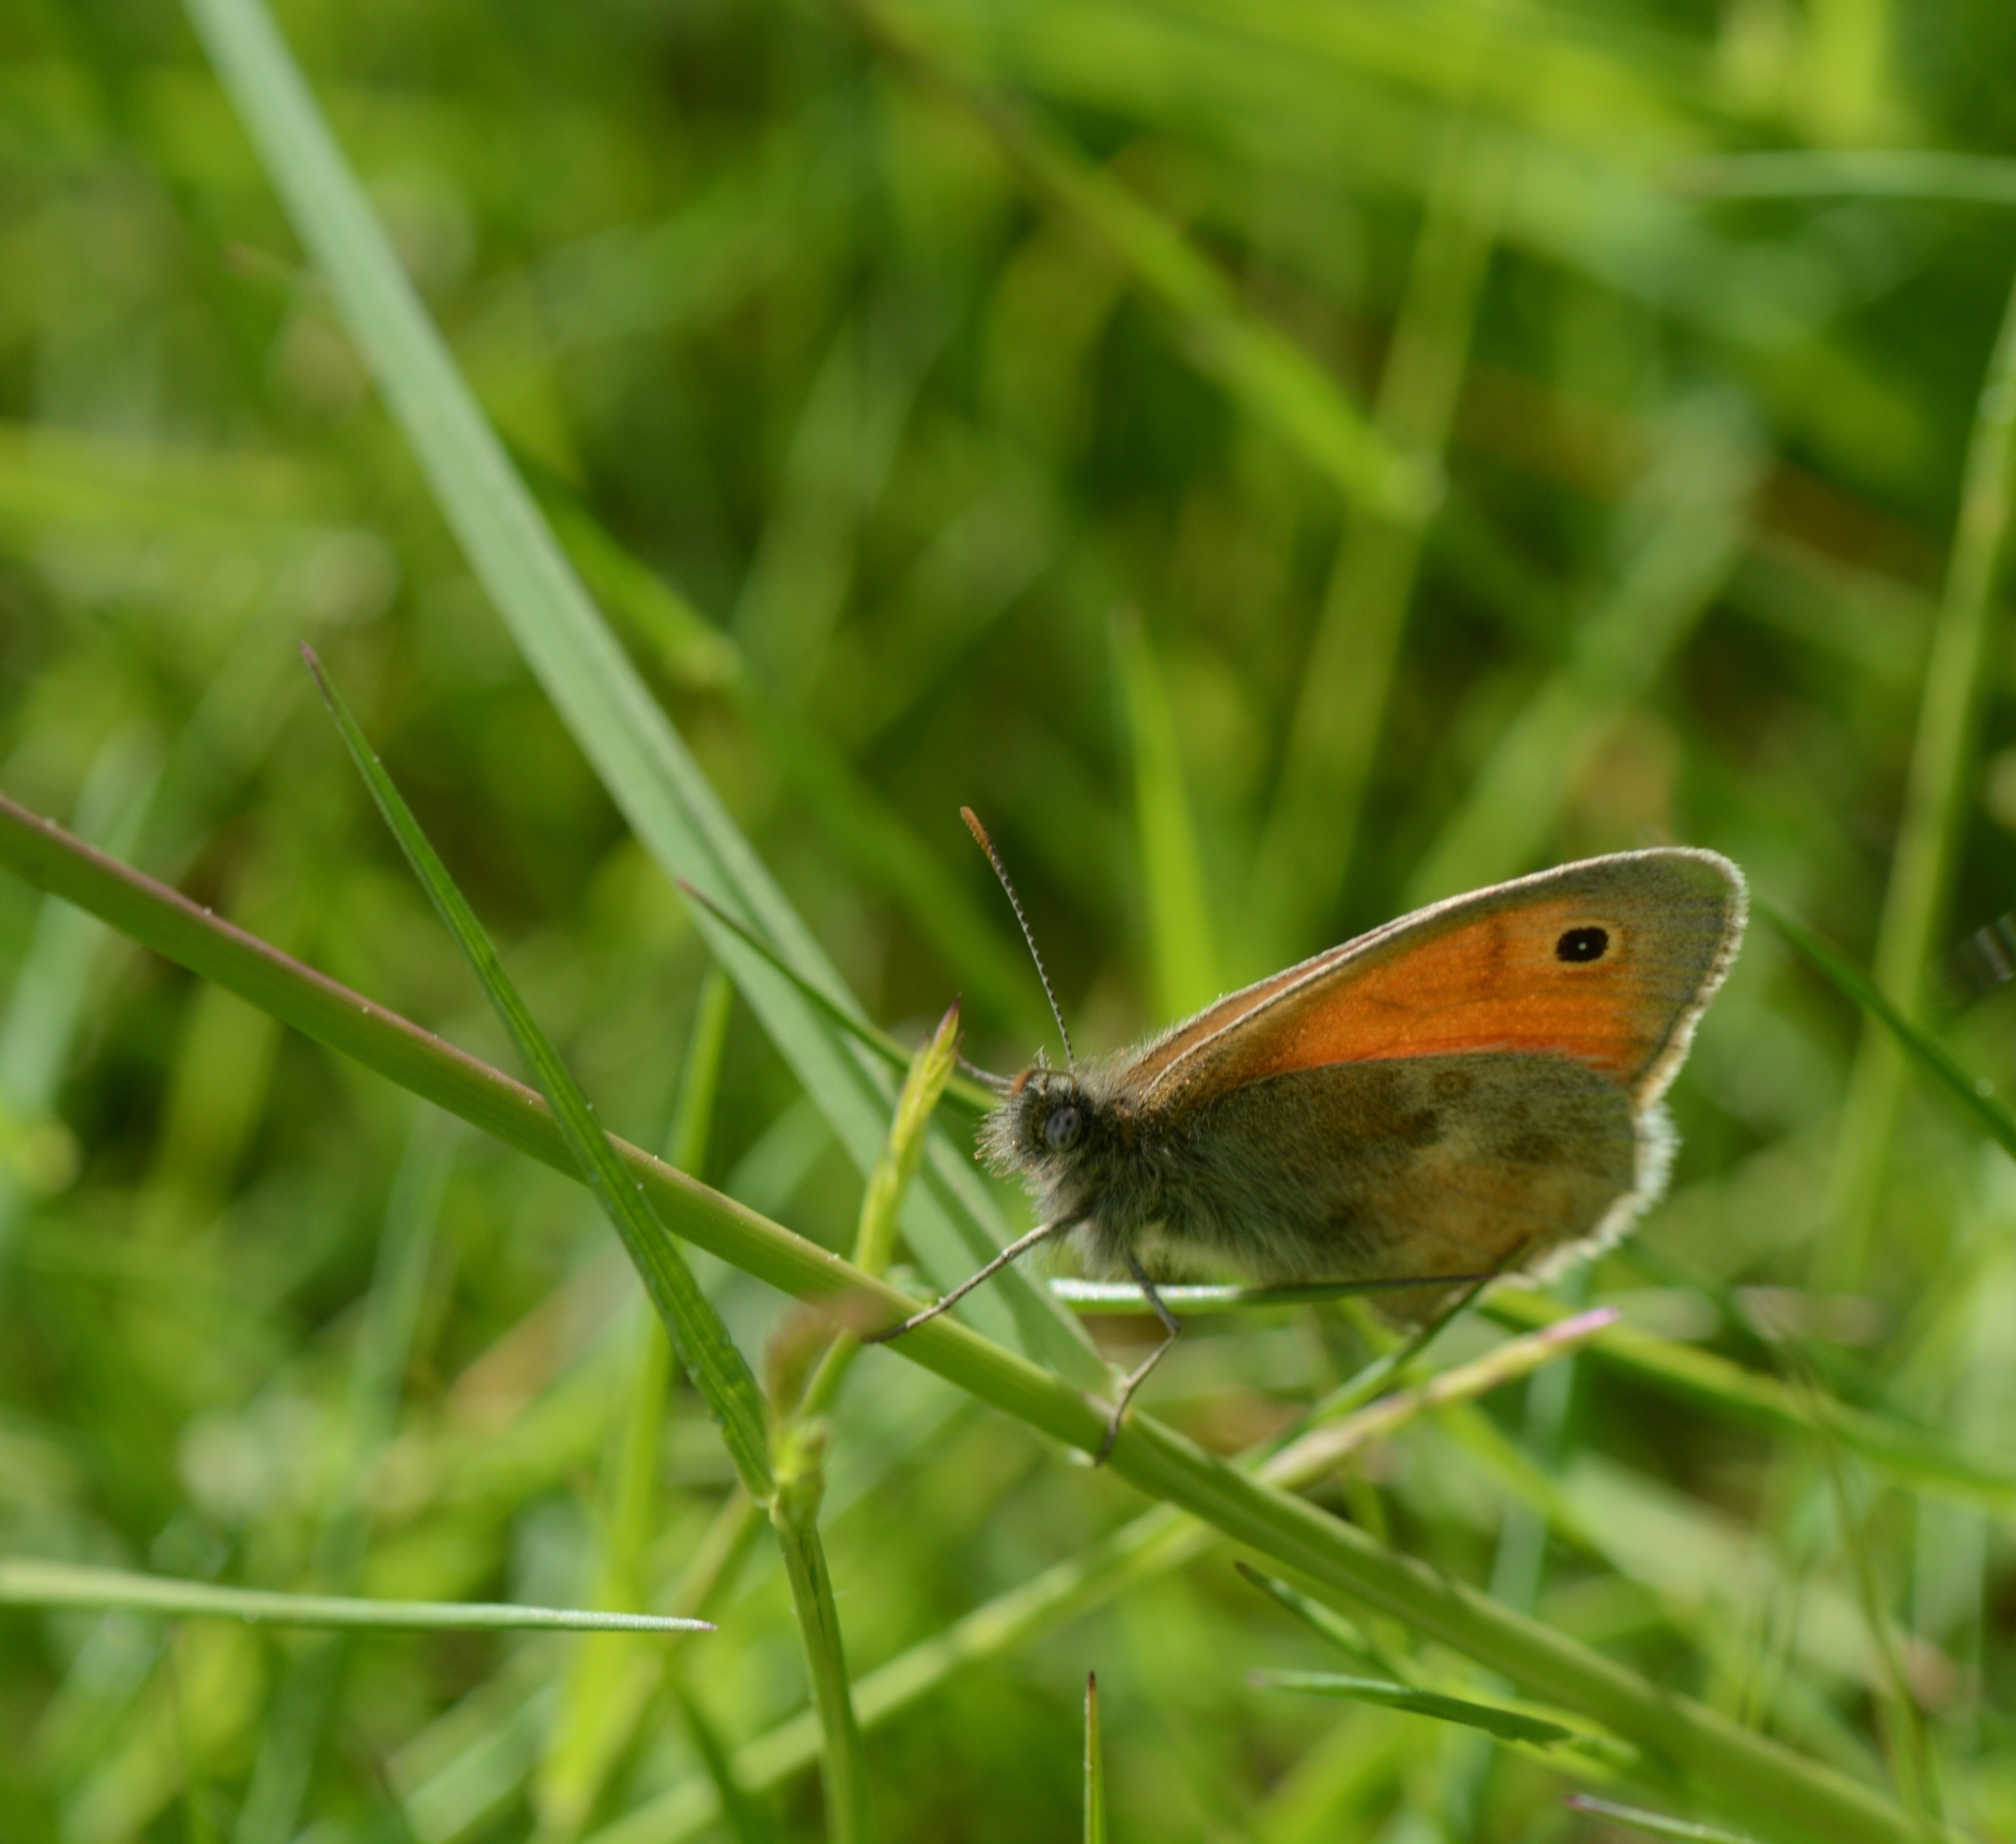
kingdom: Animalia
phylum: Arthropoda
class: Insecta
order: Lepidoptera
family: Nymphalidae
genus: Coenonympha
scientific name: Coenonympha pamphilus
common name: Small heath
